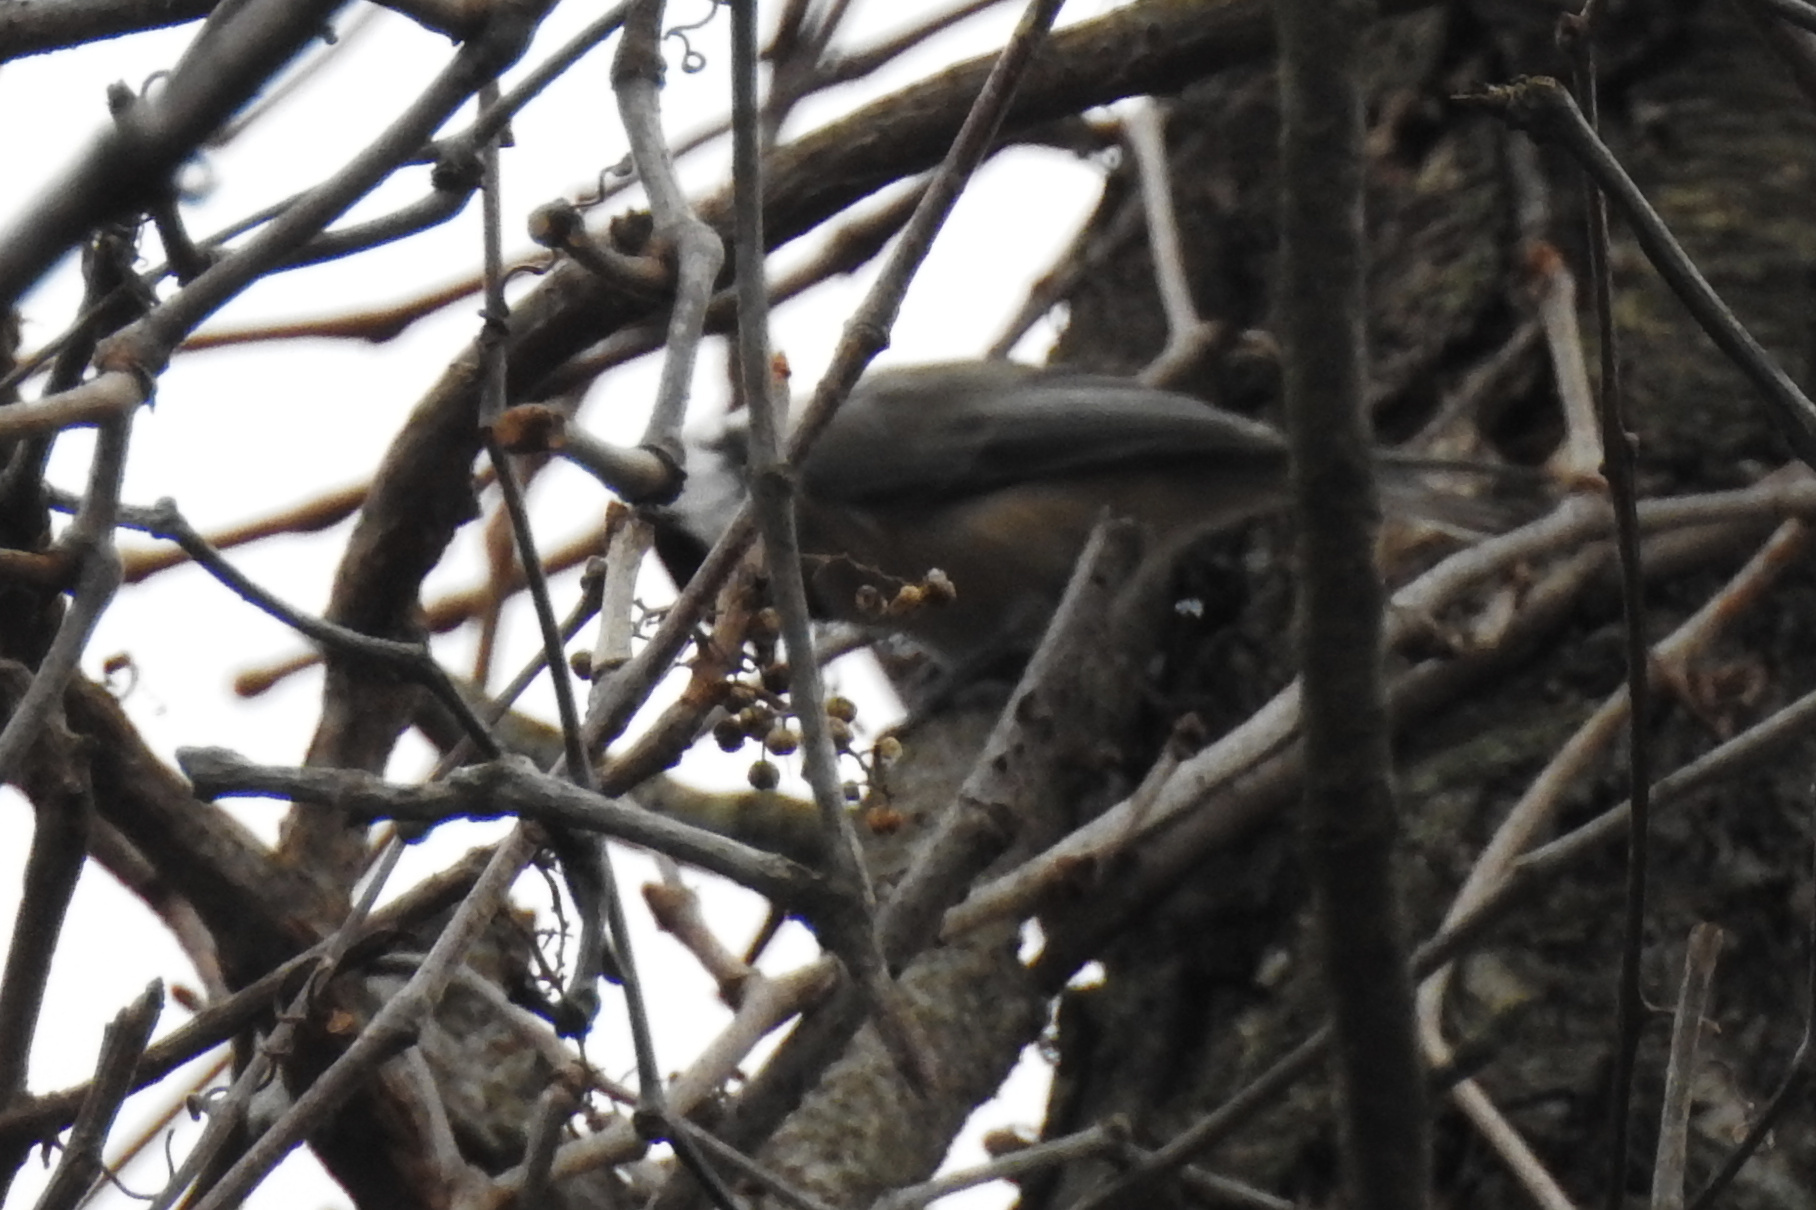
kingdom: Animalia
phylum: Chordata
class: Aves
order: Passeriformes
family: Paridae
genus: Poecile
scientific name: Poecile carolinensis
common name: Carolina chickadee
